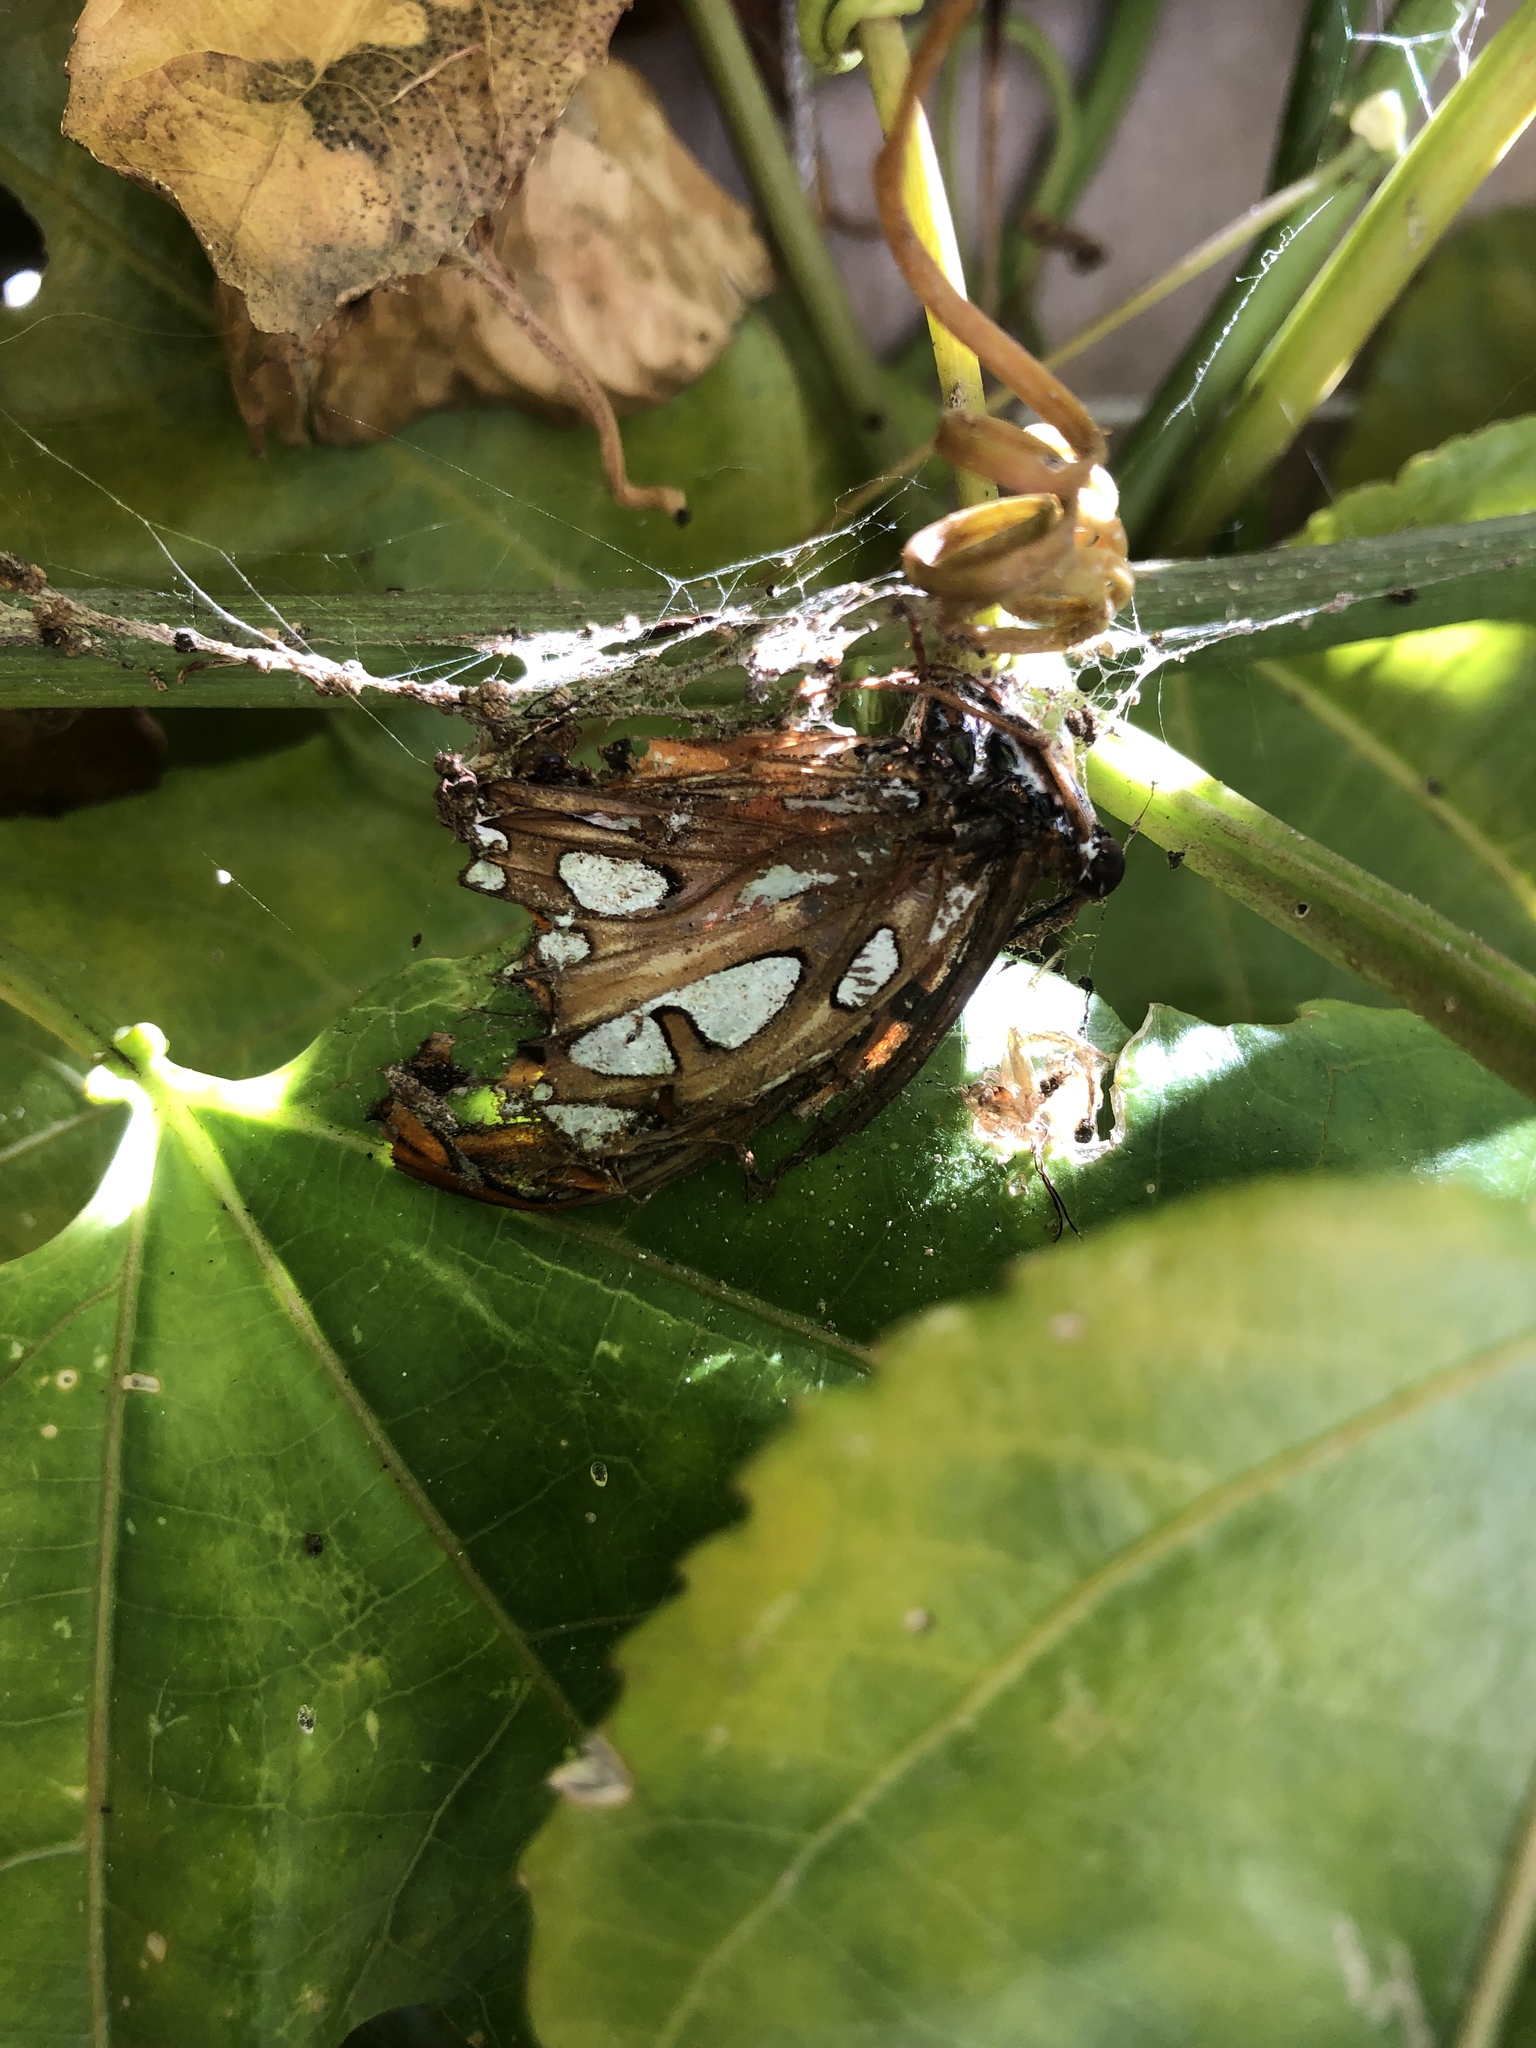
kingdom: Animalia
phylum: Arthropoda
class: Insecta
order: Lepidoptera
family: Nymphalidae
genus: Dione
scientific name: Dione vanillae
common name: Gulf fritillary
